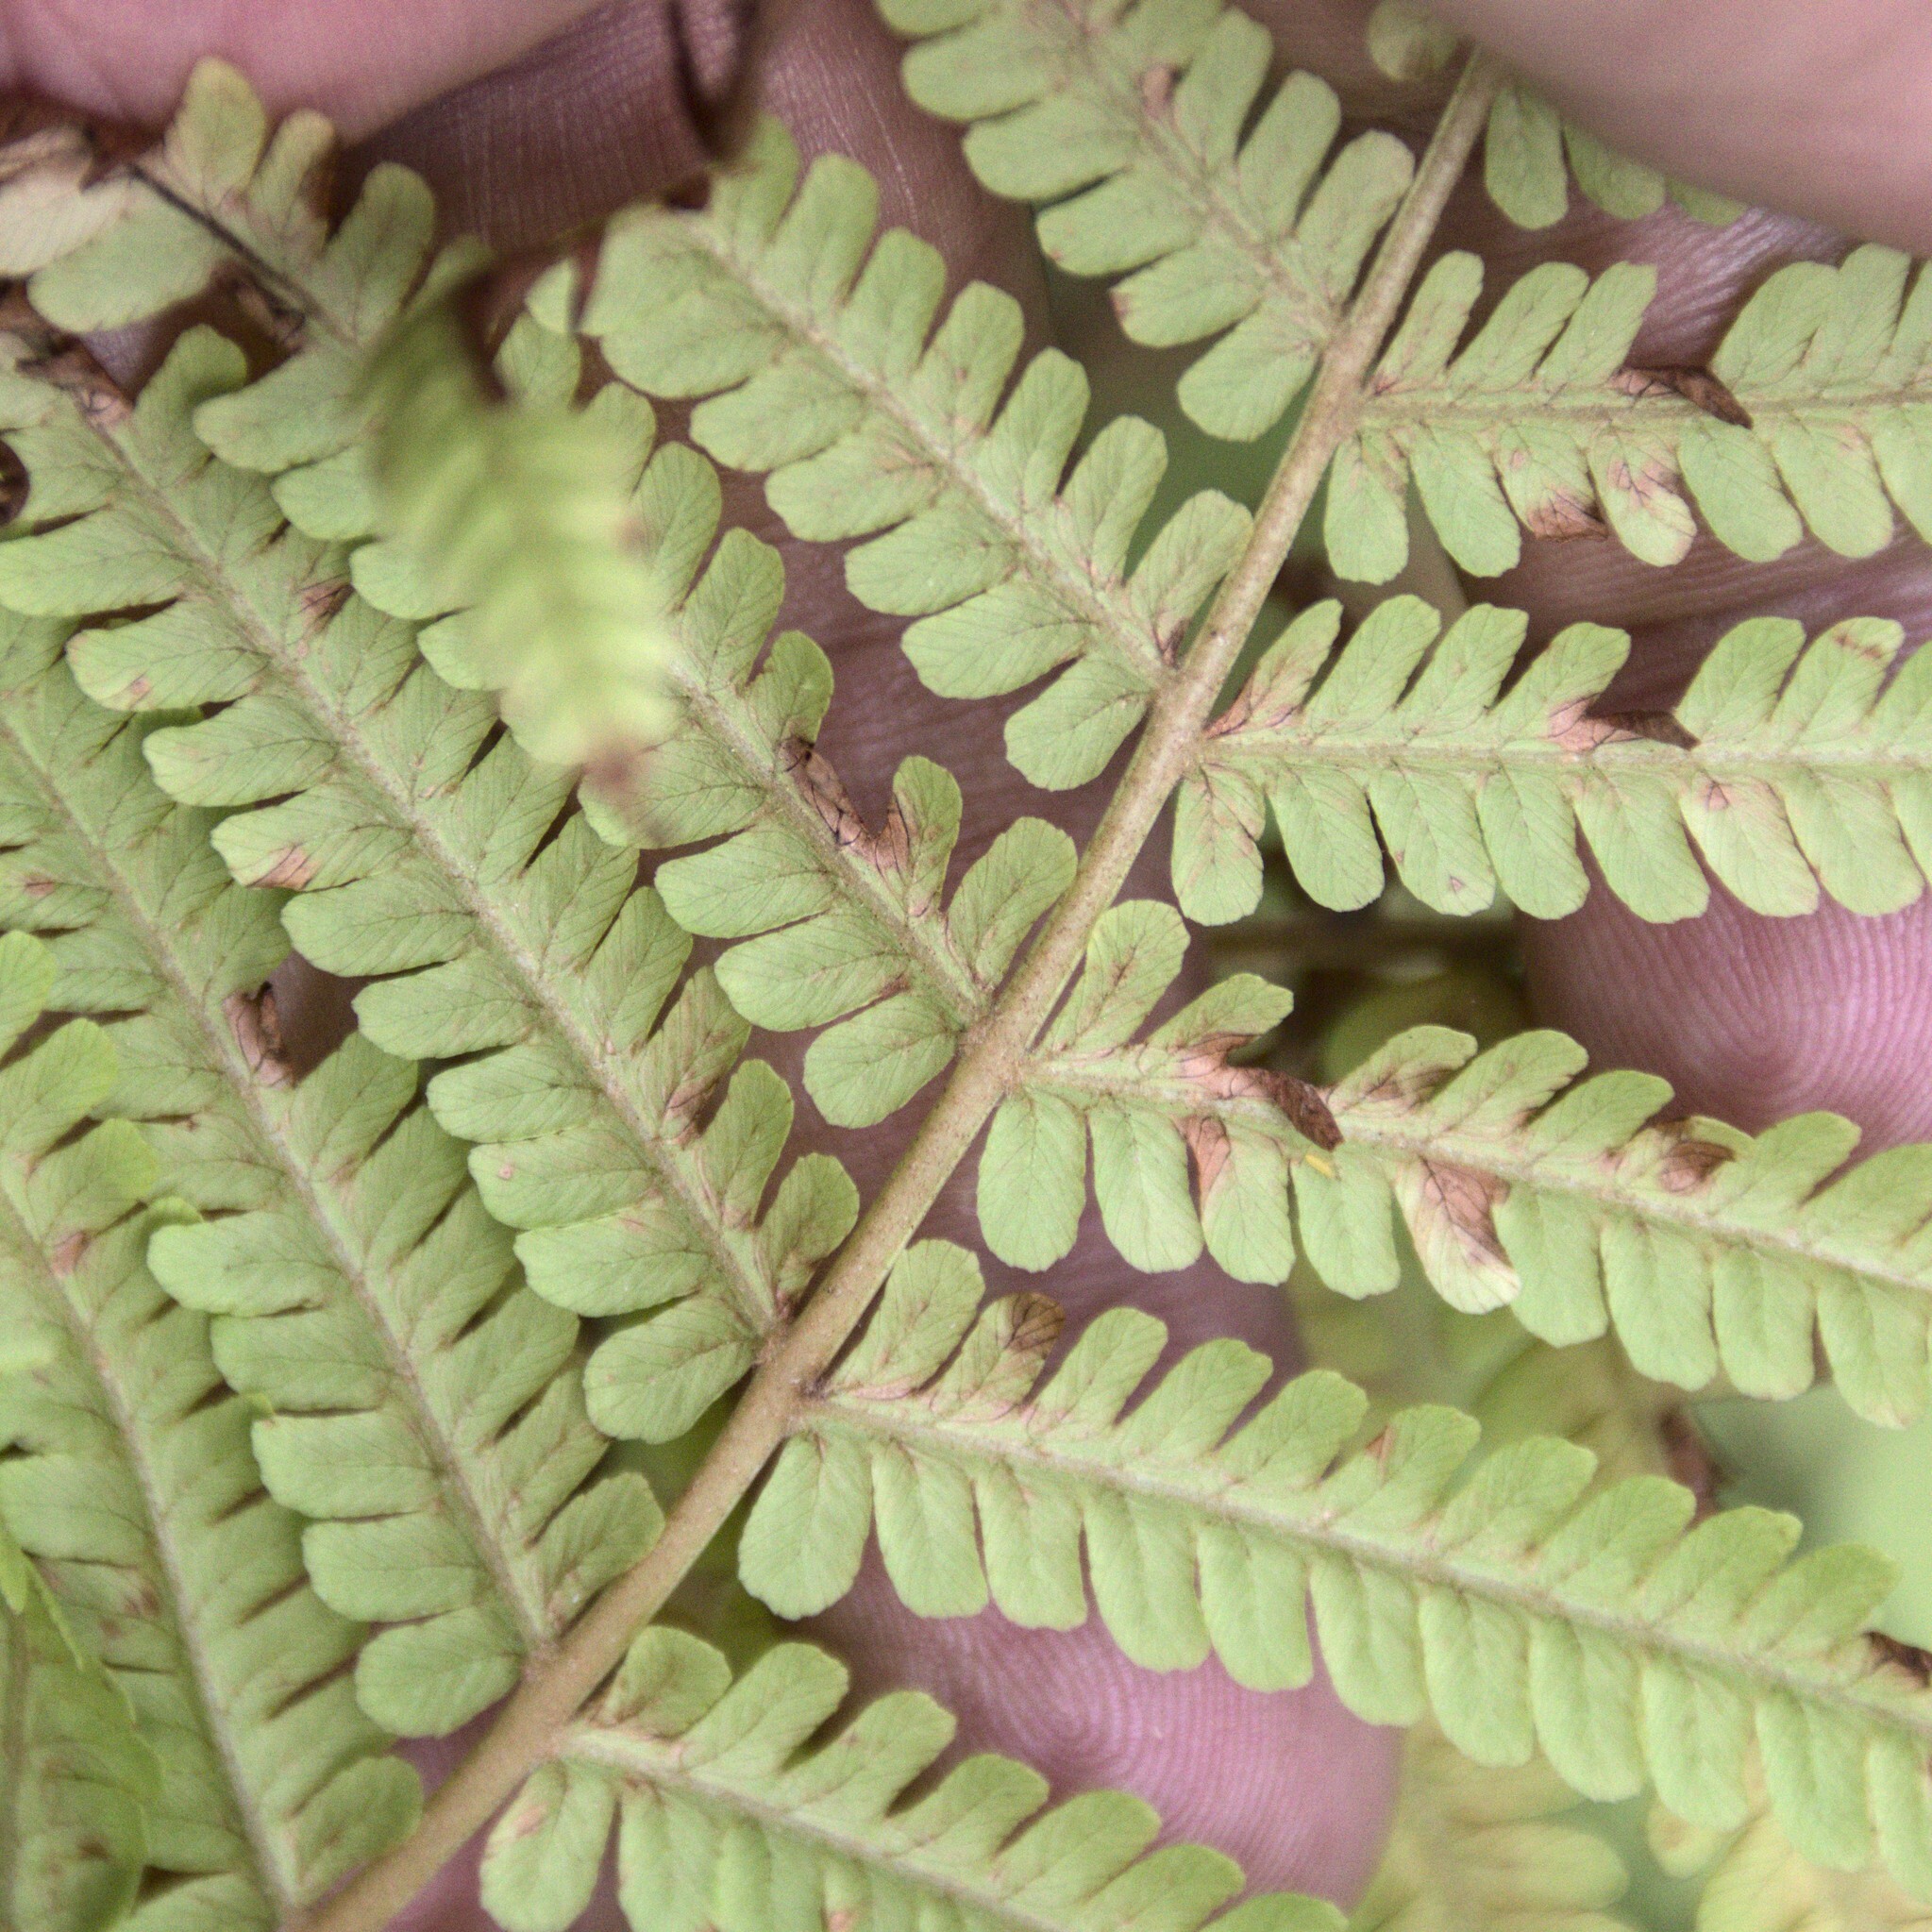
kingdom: Plantae
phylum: Tracheophyta
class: Polypodiopsida
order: Polypodiales
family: Onocleaceae
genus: Matteuccia
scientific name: Matteuccia struthiopteris
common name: Ostrich fern
